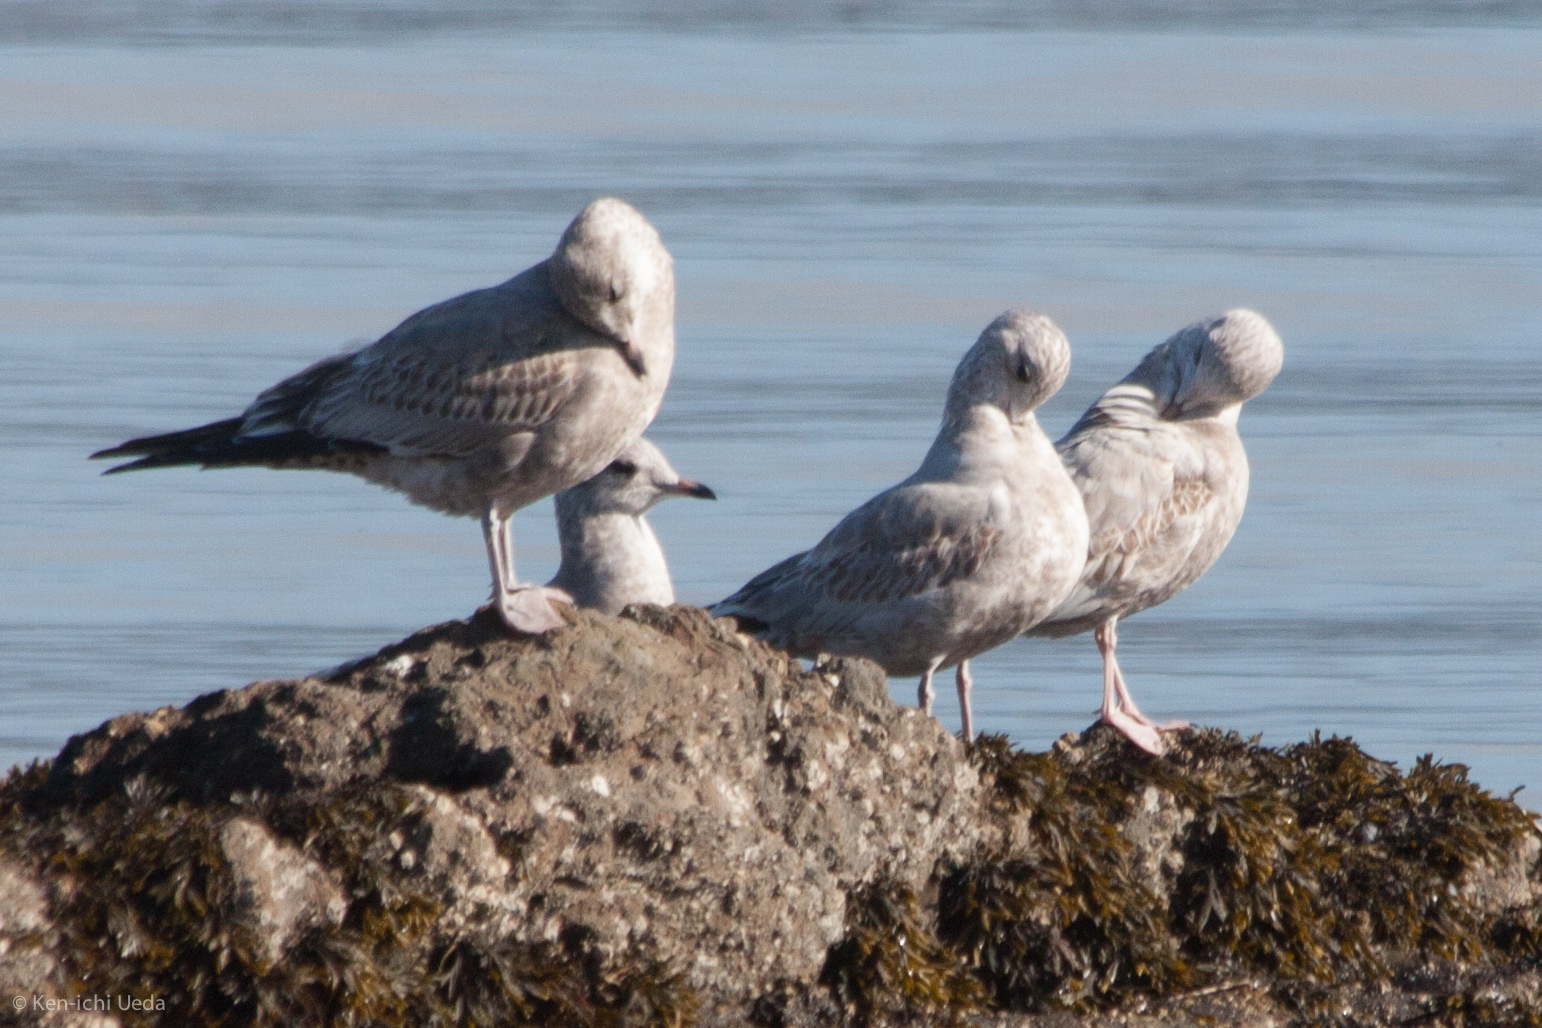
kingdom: Animalia
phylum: Chordata
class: Aves
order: Charadriiformes
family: Laridae
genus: Larus
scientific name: Larus brachyrhynchus
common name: Short-billed gull
